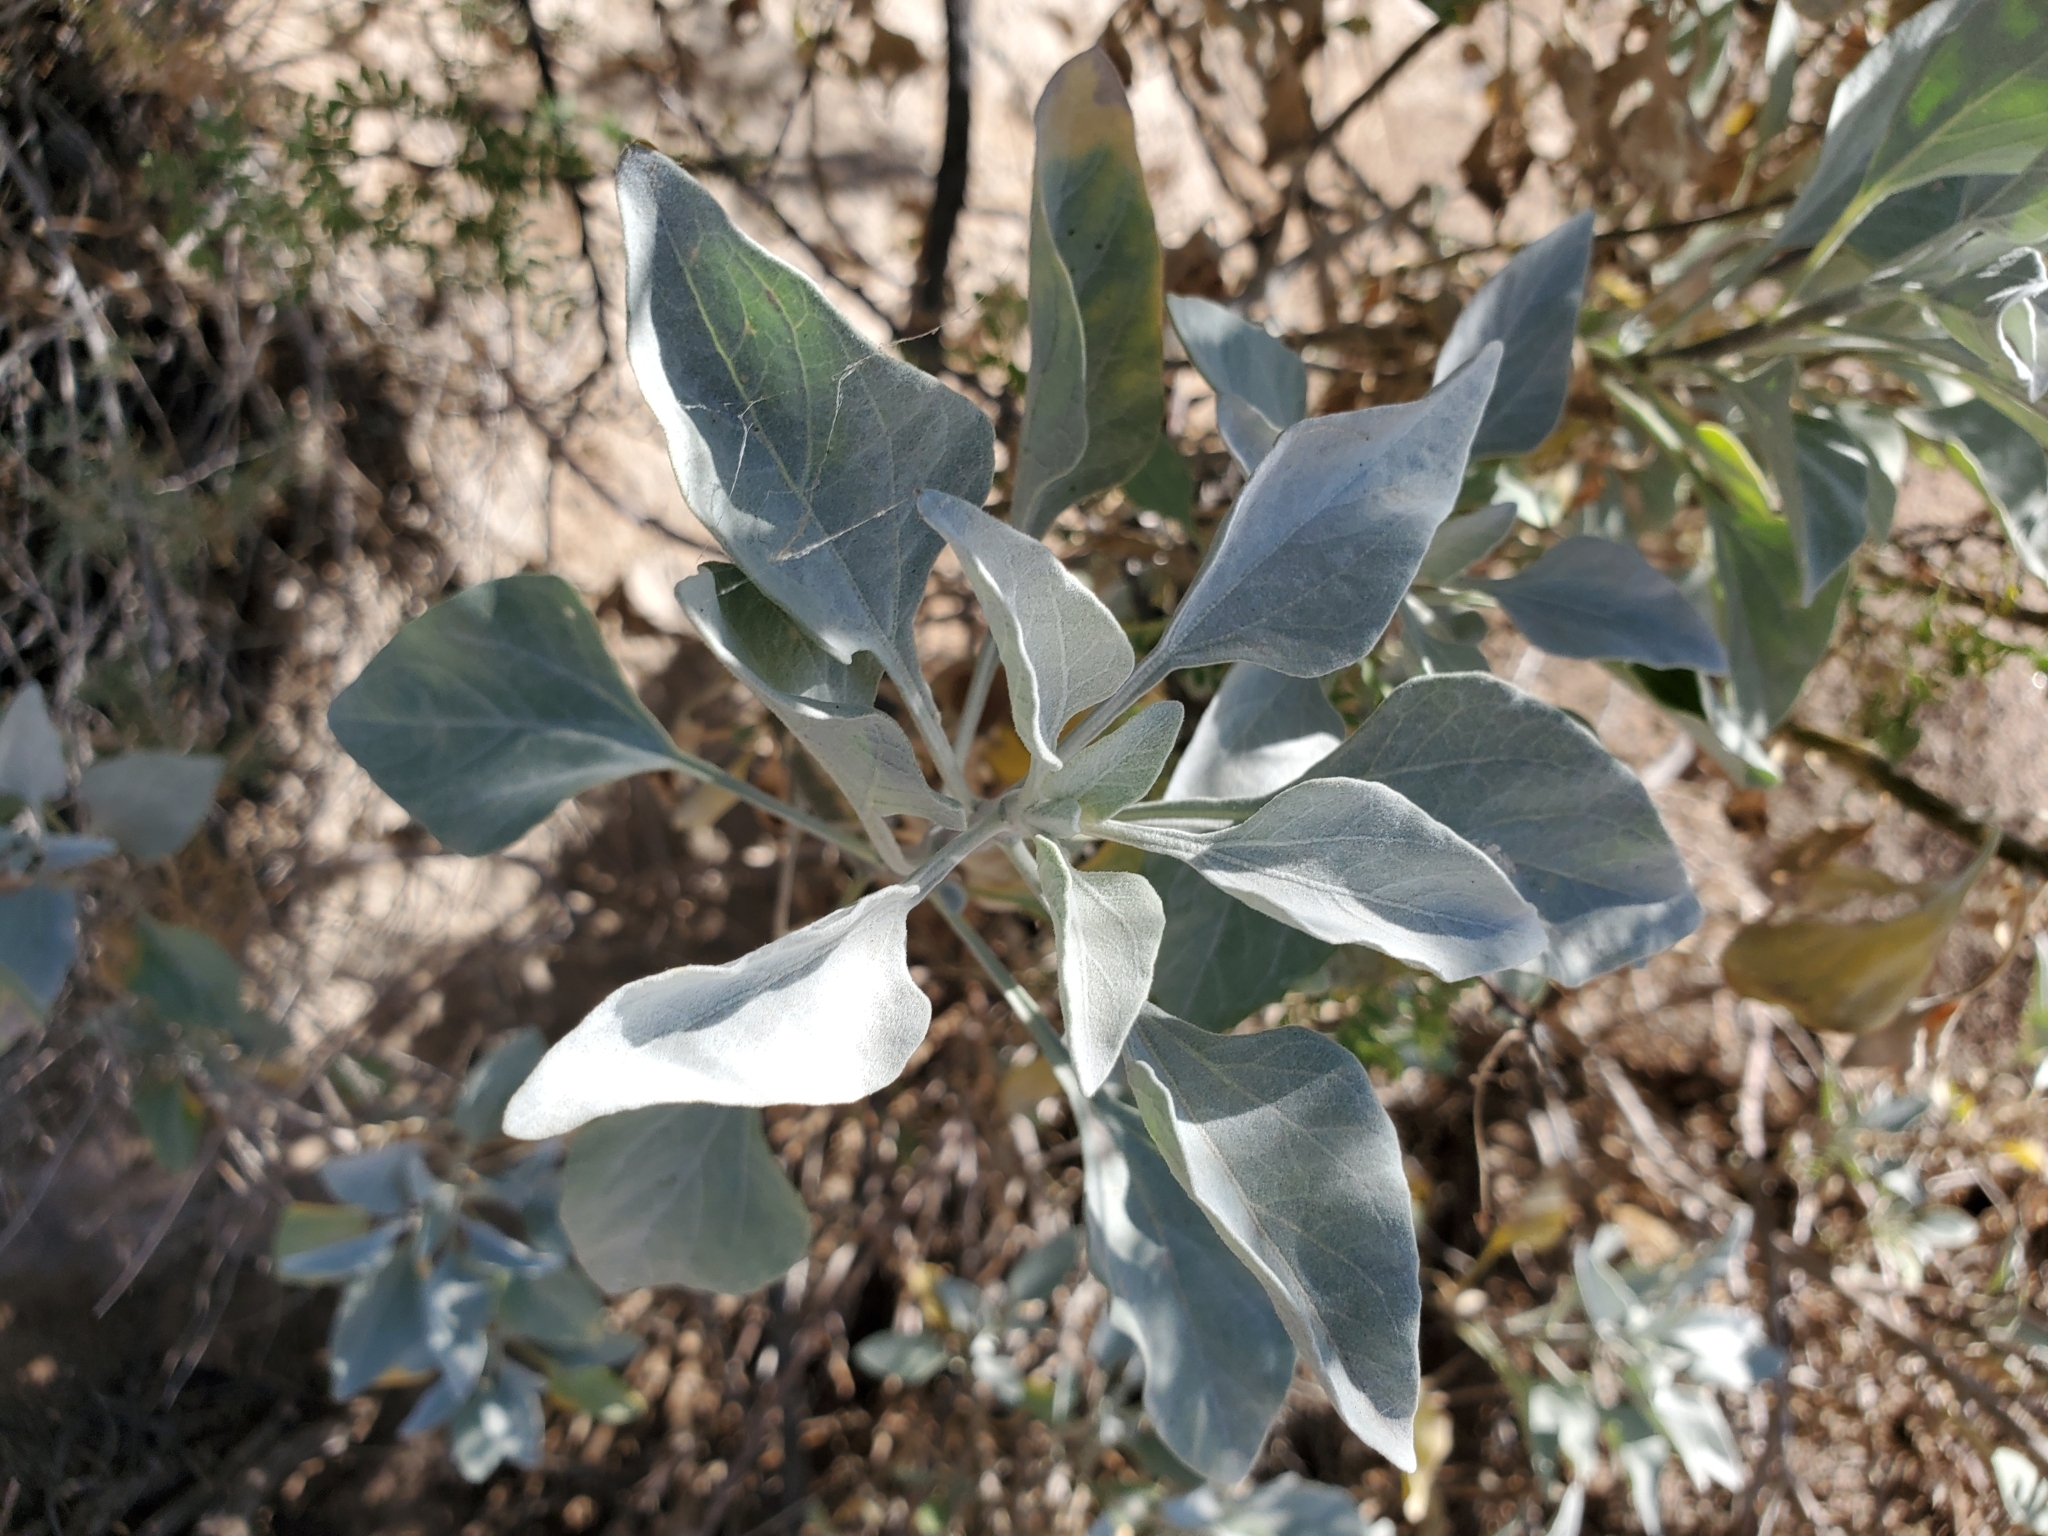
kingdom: Plantae
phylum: Tracheophyta
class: Magnoliopsida
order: Asterales
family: Asteraceae
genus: Encelia
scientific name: Encelia farinosa
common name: Brittlebush
